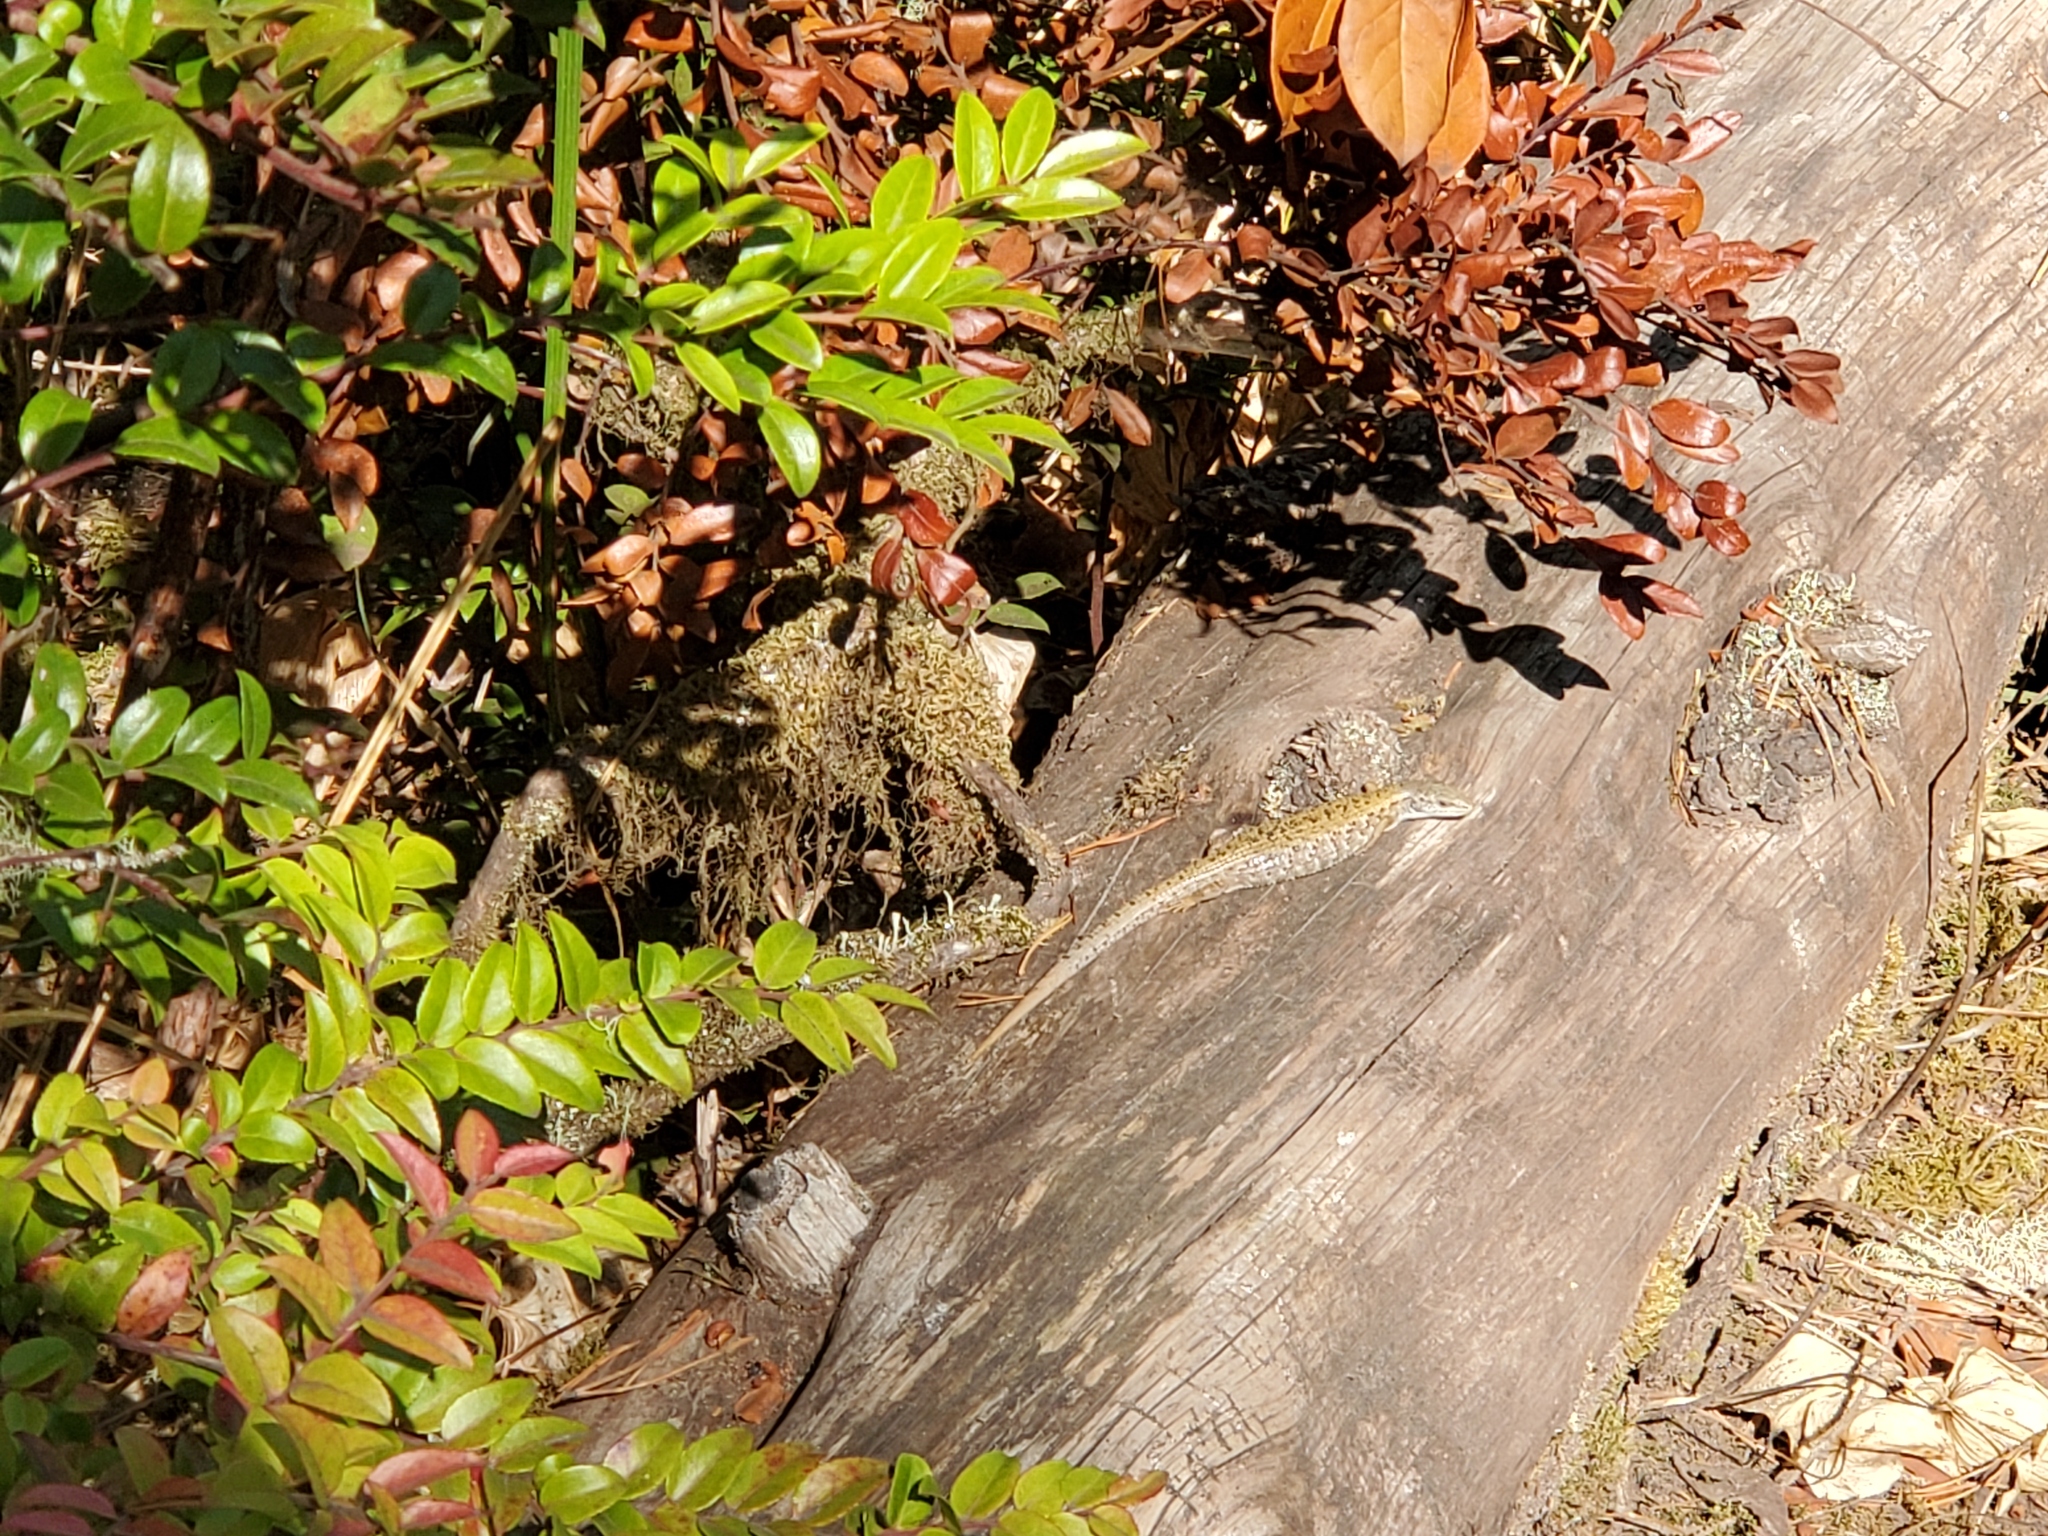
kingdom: Animalia
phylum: Chordata
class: Squamata
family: Anguidae
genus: Elgaria
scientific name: Elgaria coerulea
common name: Northern alligator lizard
